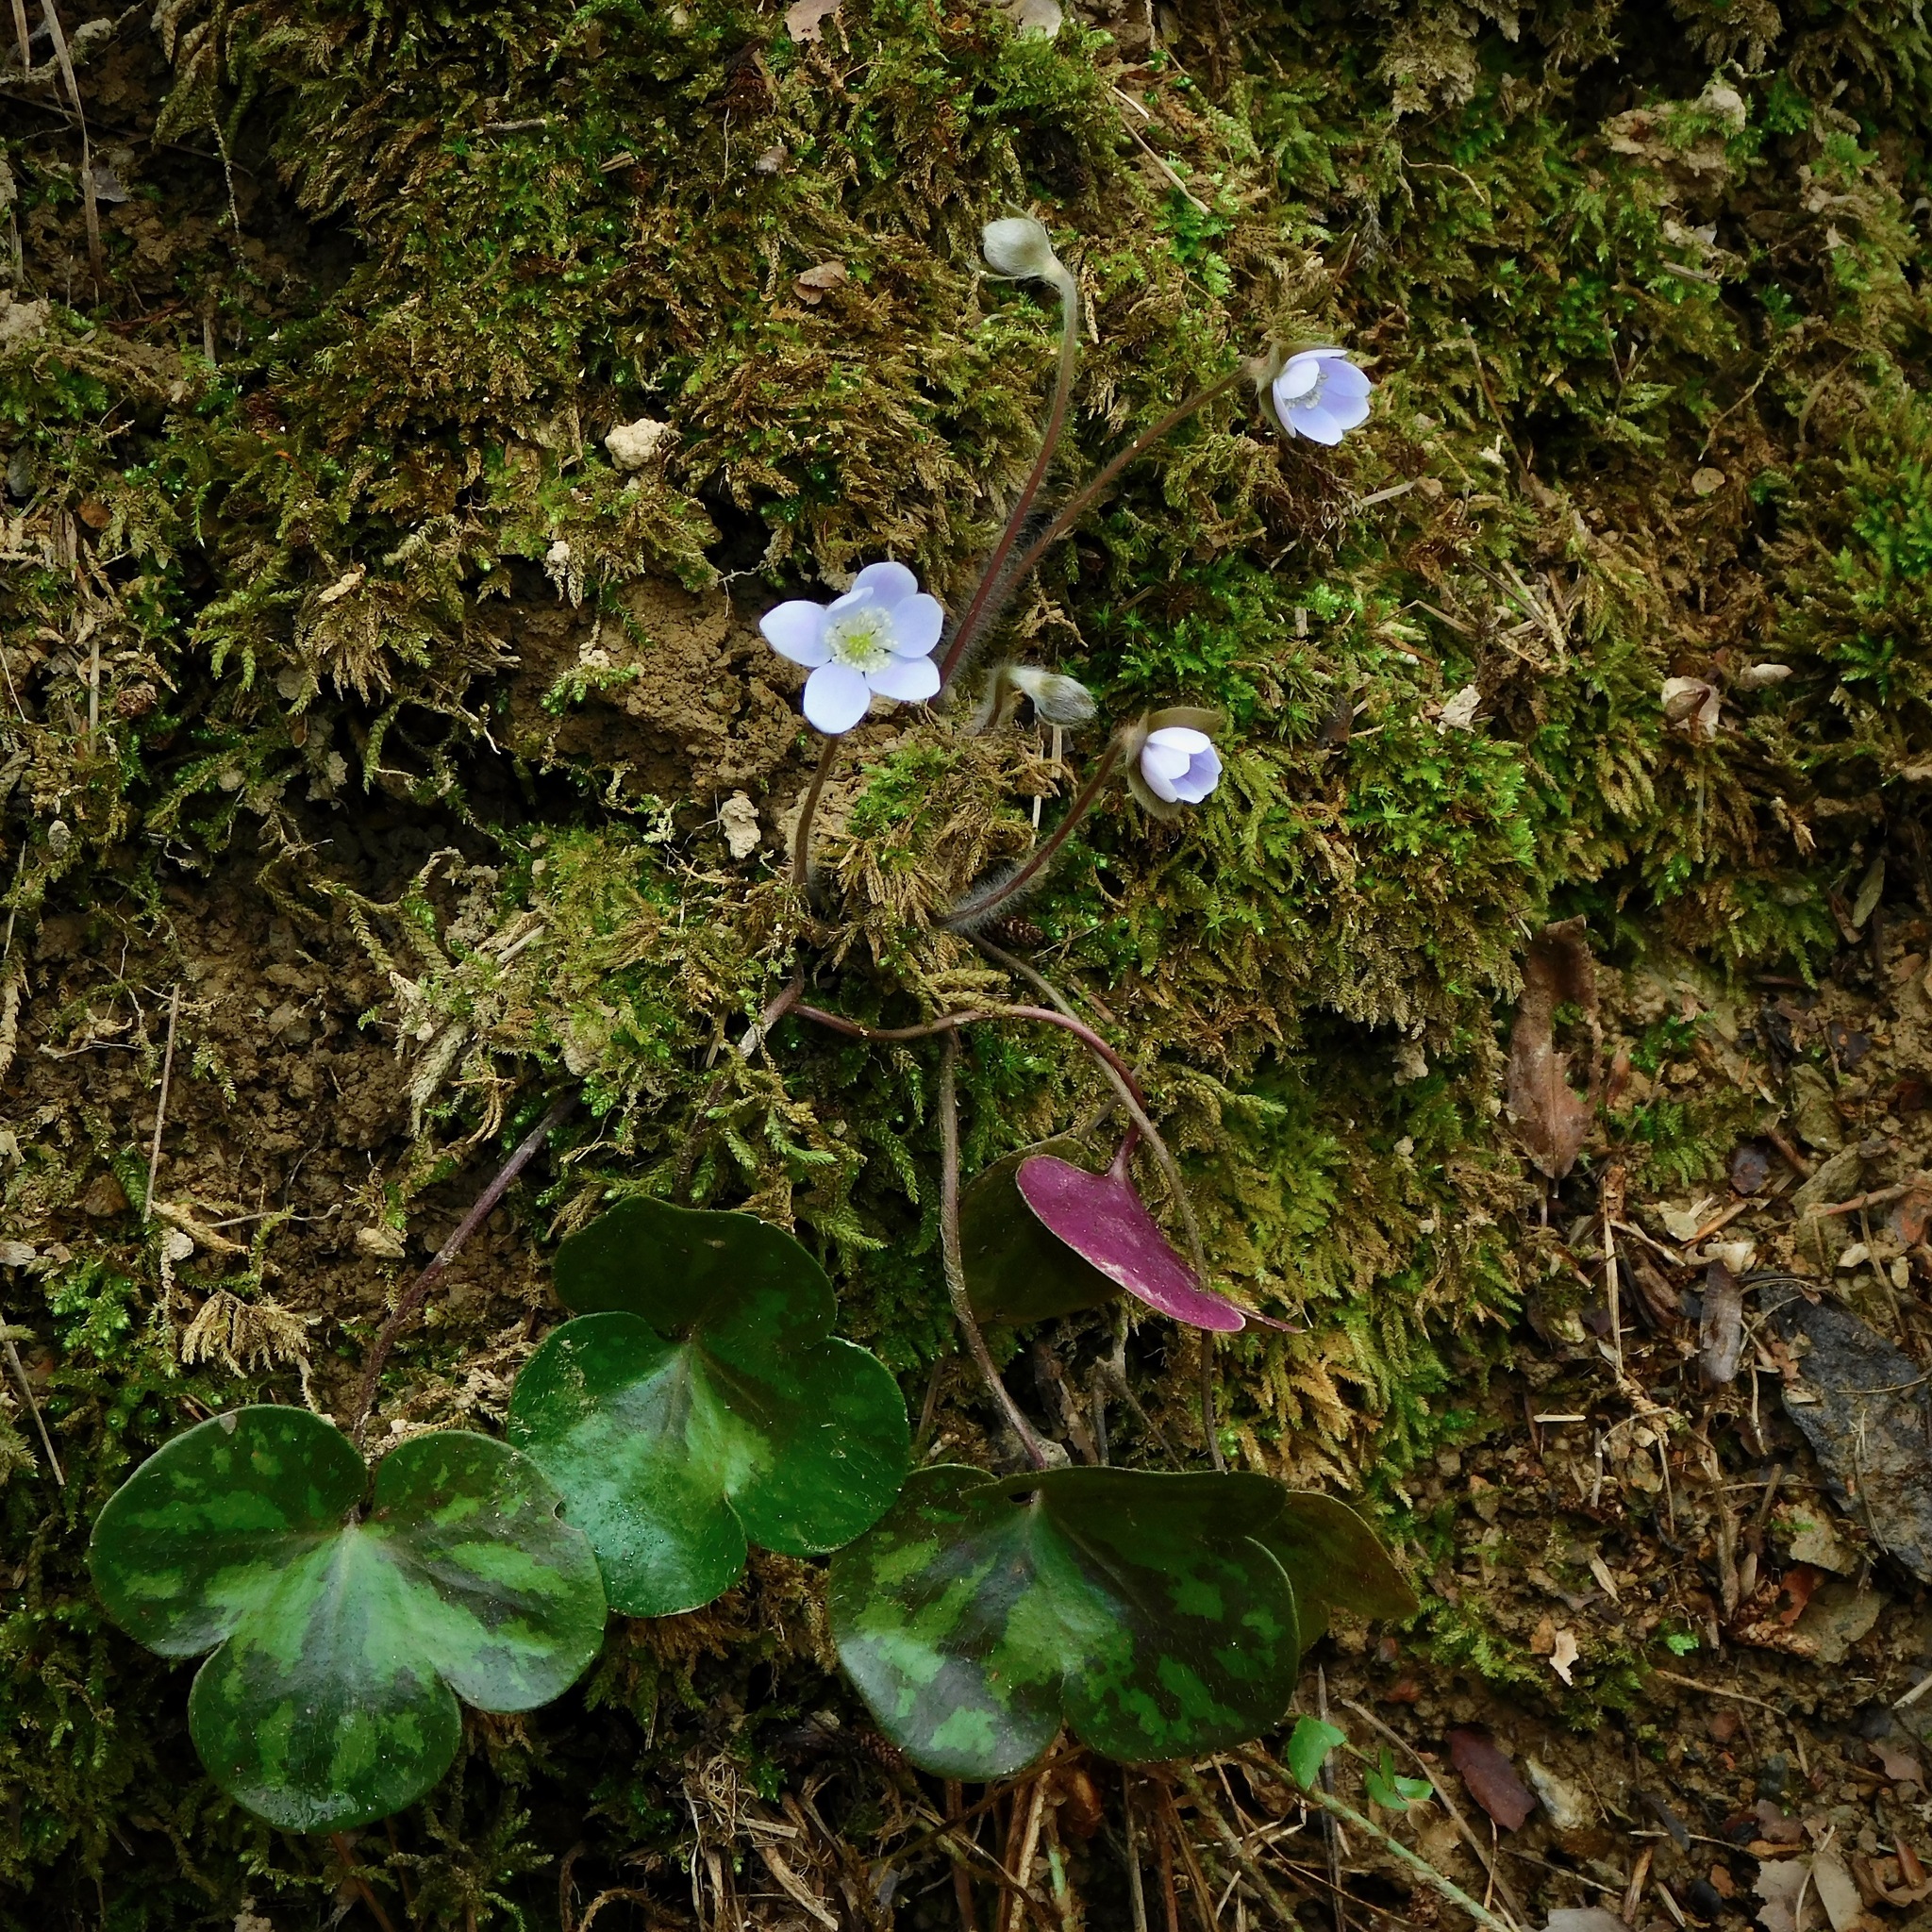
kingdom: Plantae
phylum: Tracheophyta
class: Magnoliopsida
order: Ranunculales
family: Ranunculaceae
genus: Hepatica
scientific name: Hepatica americana
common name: American hepatica
